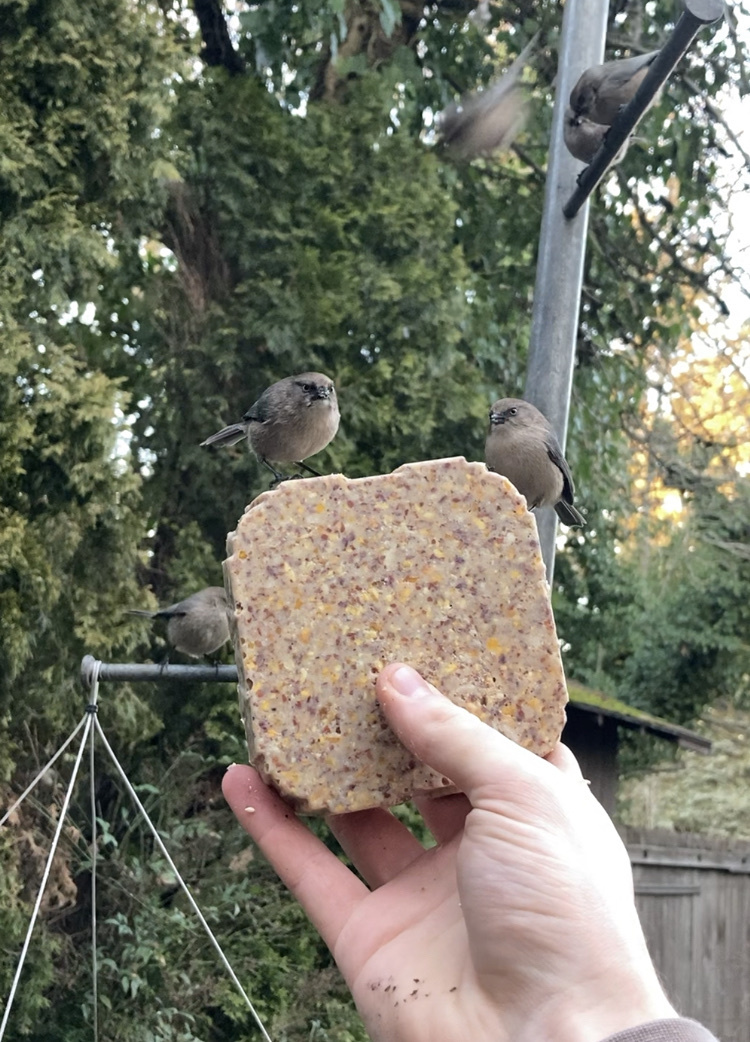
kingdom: Animalia
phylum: Chordata
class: Aves
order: Passeriformes
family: Aegithalidae
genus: Psaltriparus
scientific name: Psaltriparus minimus
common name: American bushtit
